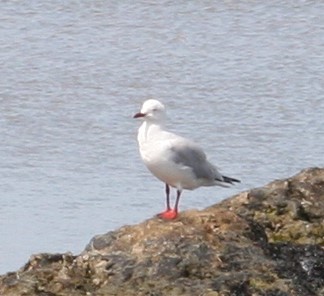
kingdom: Animalia
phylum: Chordata
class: Aves
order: Charadriiformes
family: Laridae
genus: Chroicocephalus
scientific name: Chroicocephalus novaehollandiae
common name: Silver gull
